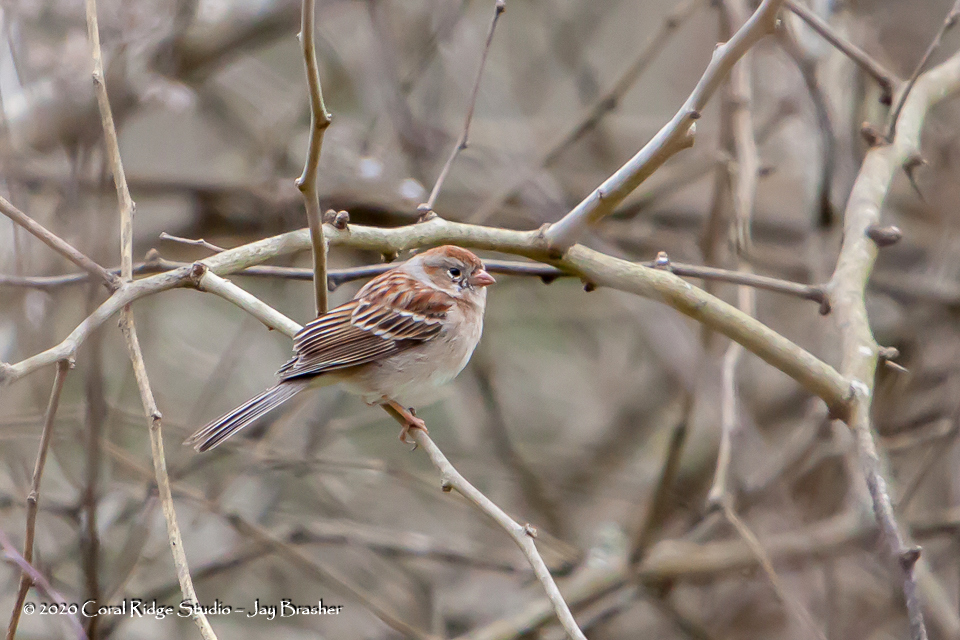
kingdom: Animalia
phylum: Chordata
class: Aves
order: Passeriformes
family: Passerellidae
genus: Spizella
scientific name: Spizella pusilla
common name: Field sparrow
